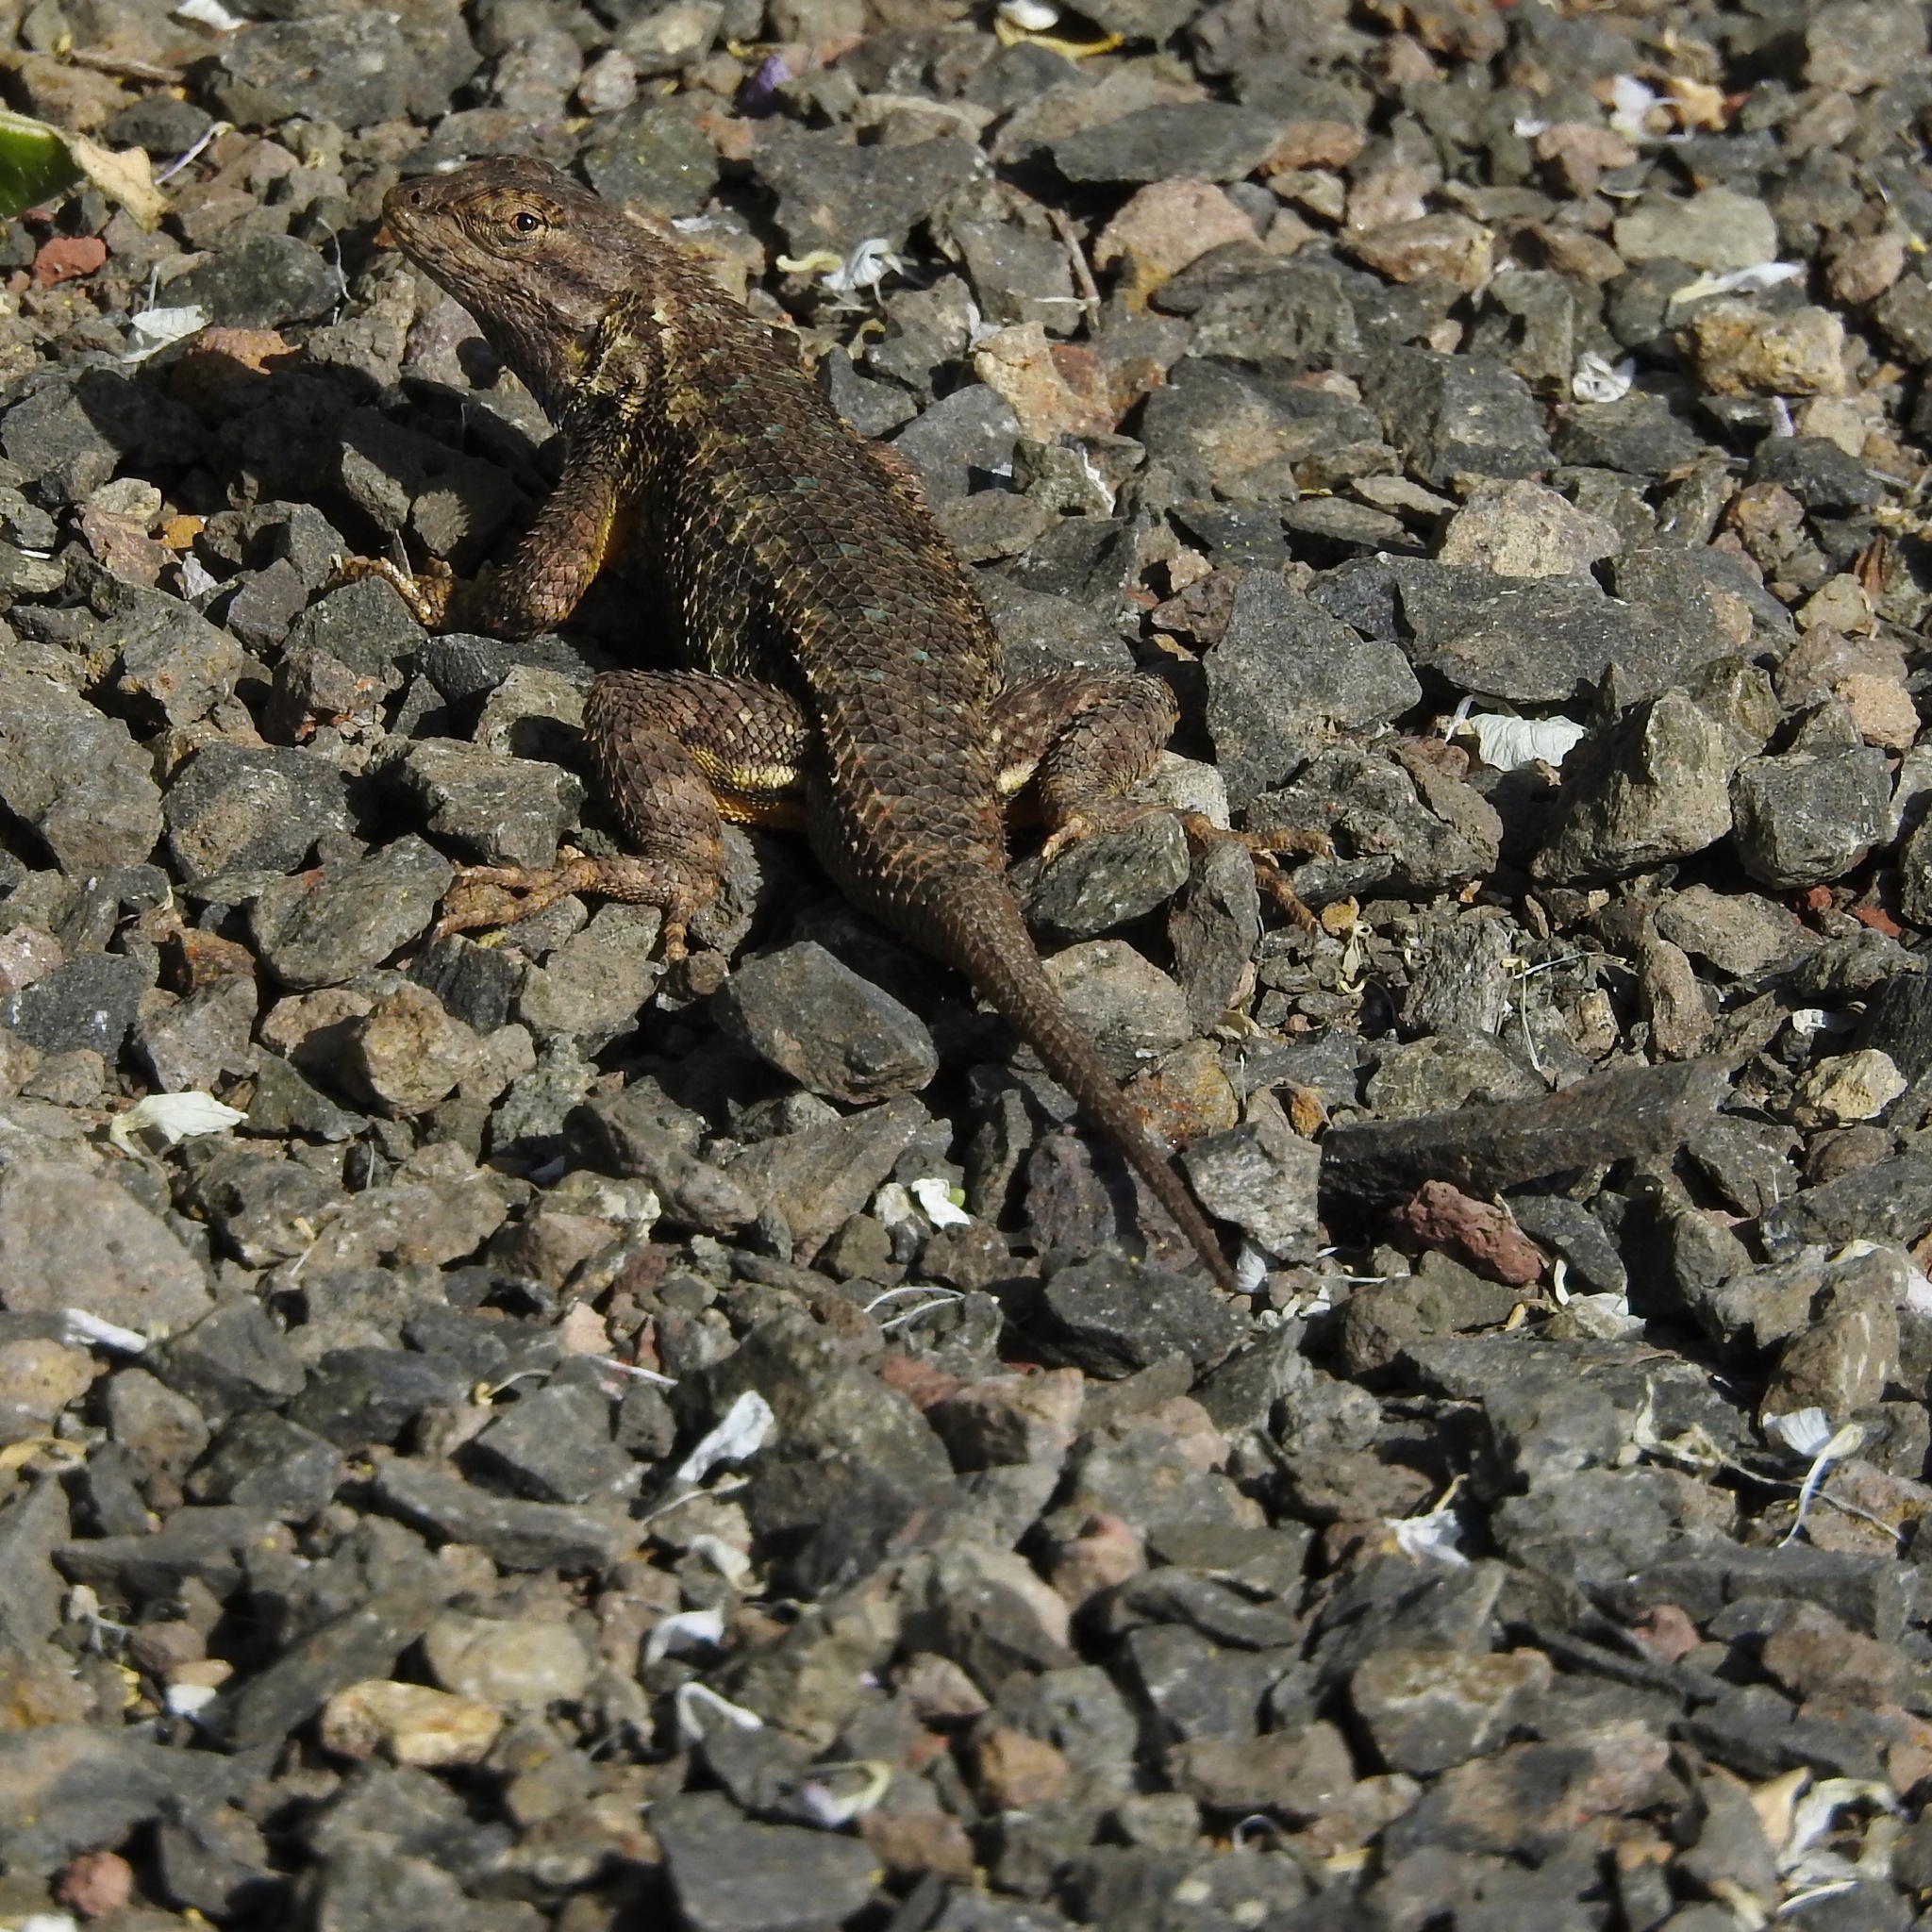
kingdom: Animalia
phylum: Chordata
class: Squamata
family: Phrynosomatidae
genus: Sceloporus
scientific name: Sceloporus occidentalis
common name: Western fence lizard
